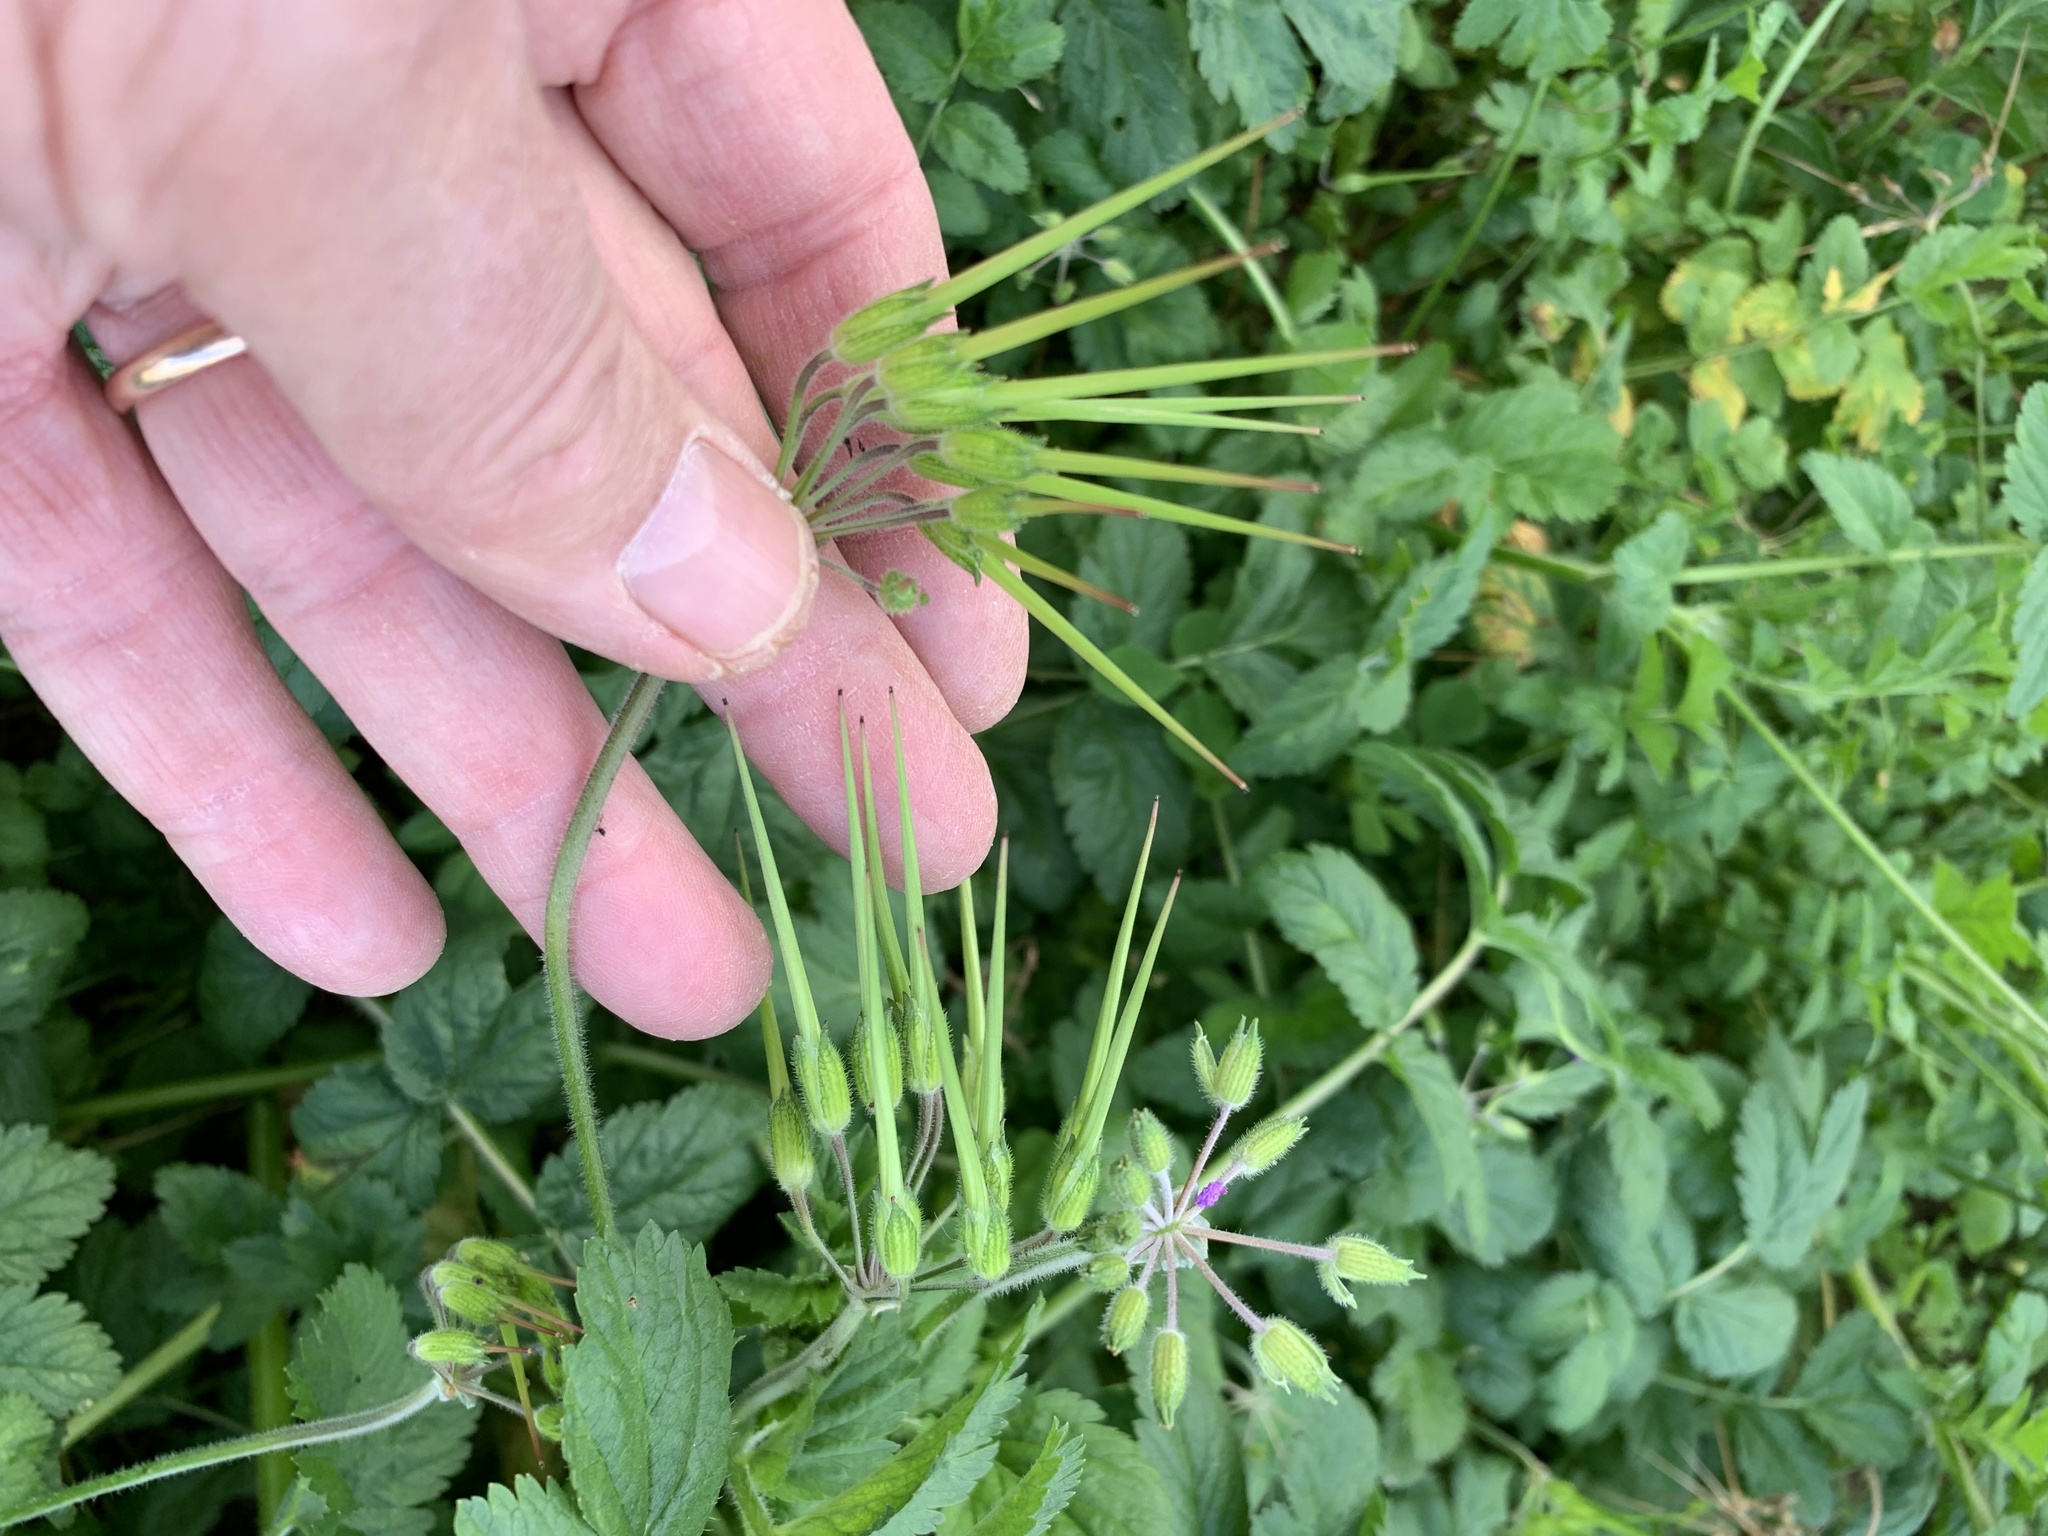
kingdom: Plantae
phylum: Tracheophyta
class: Magnoliopsida
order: Geraniales
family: Geraniaceae
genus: Erodium
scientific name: Erodium moschatum
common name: Musk stork's-bill
